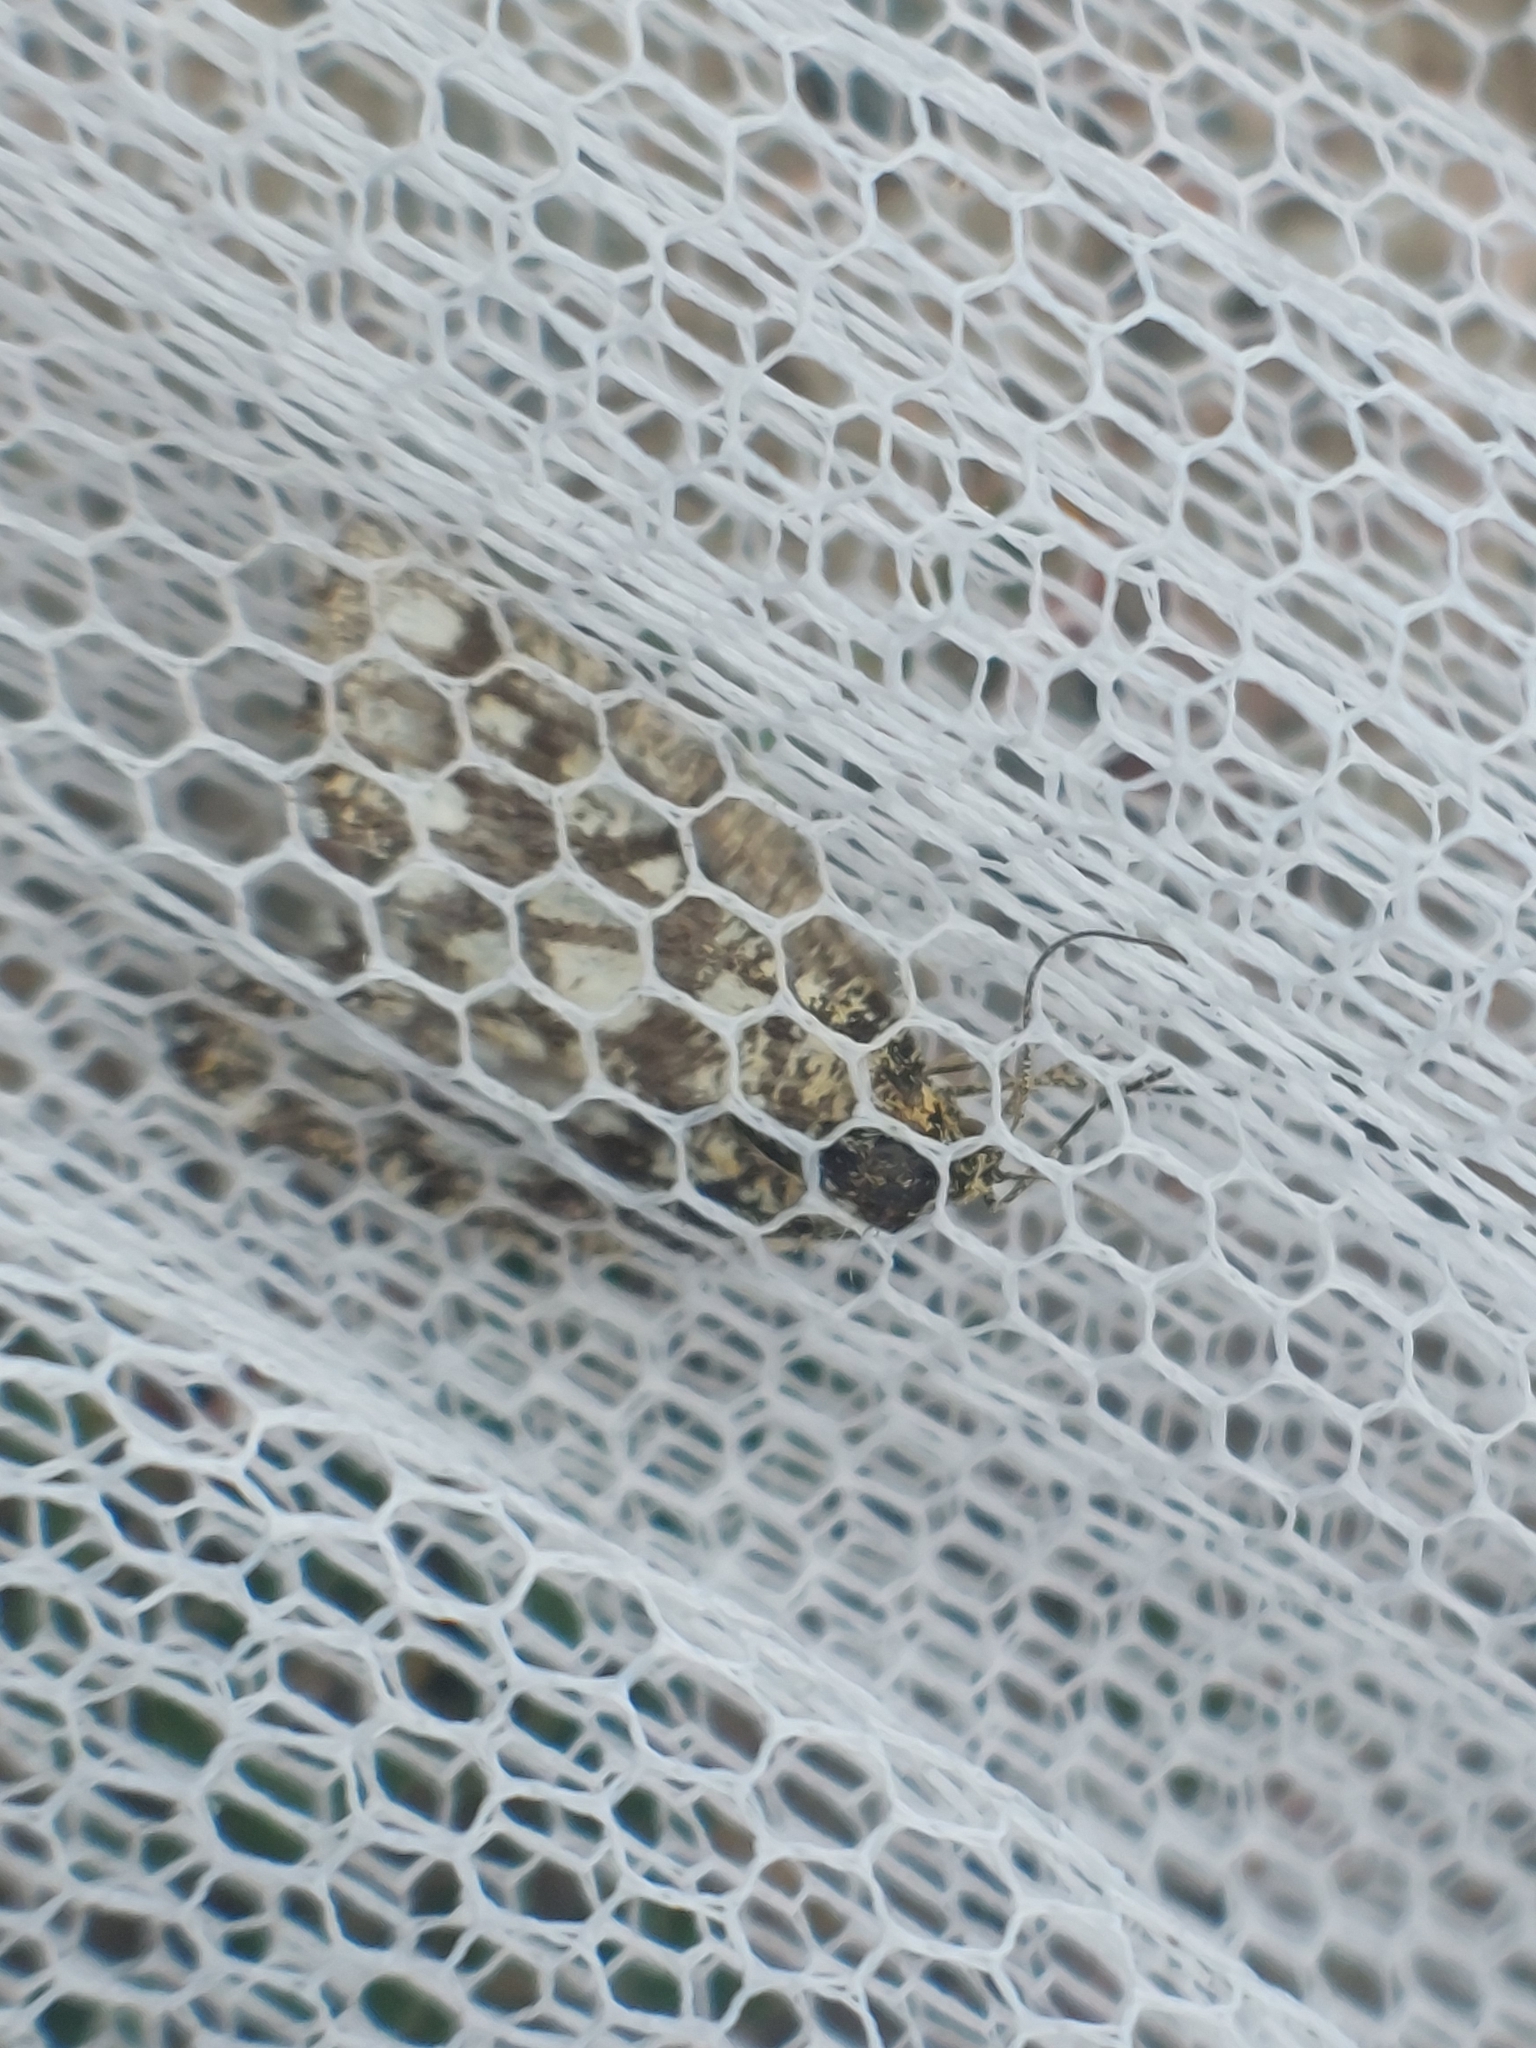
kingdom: Animalia
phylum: Arthropoda
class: Insecta
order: Lepidoptera
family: Geometridae
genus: Chiasmia
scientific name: Chiasmia clathrata
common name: Latticed heath
